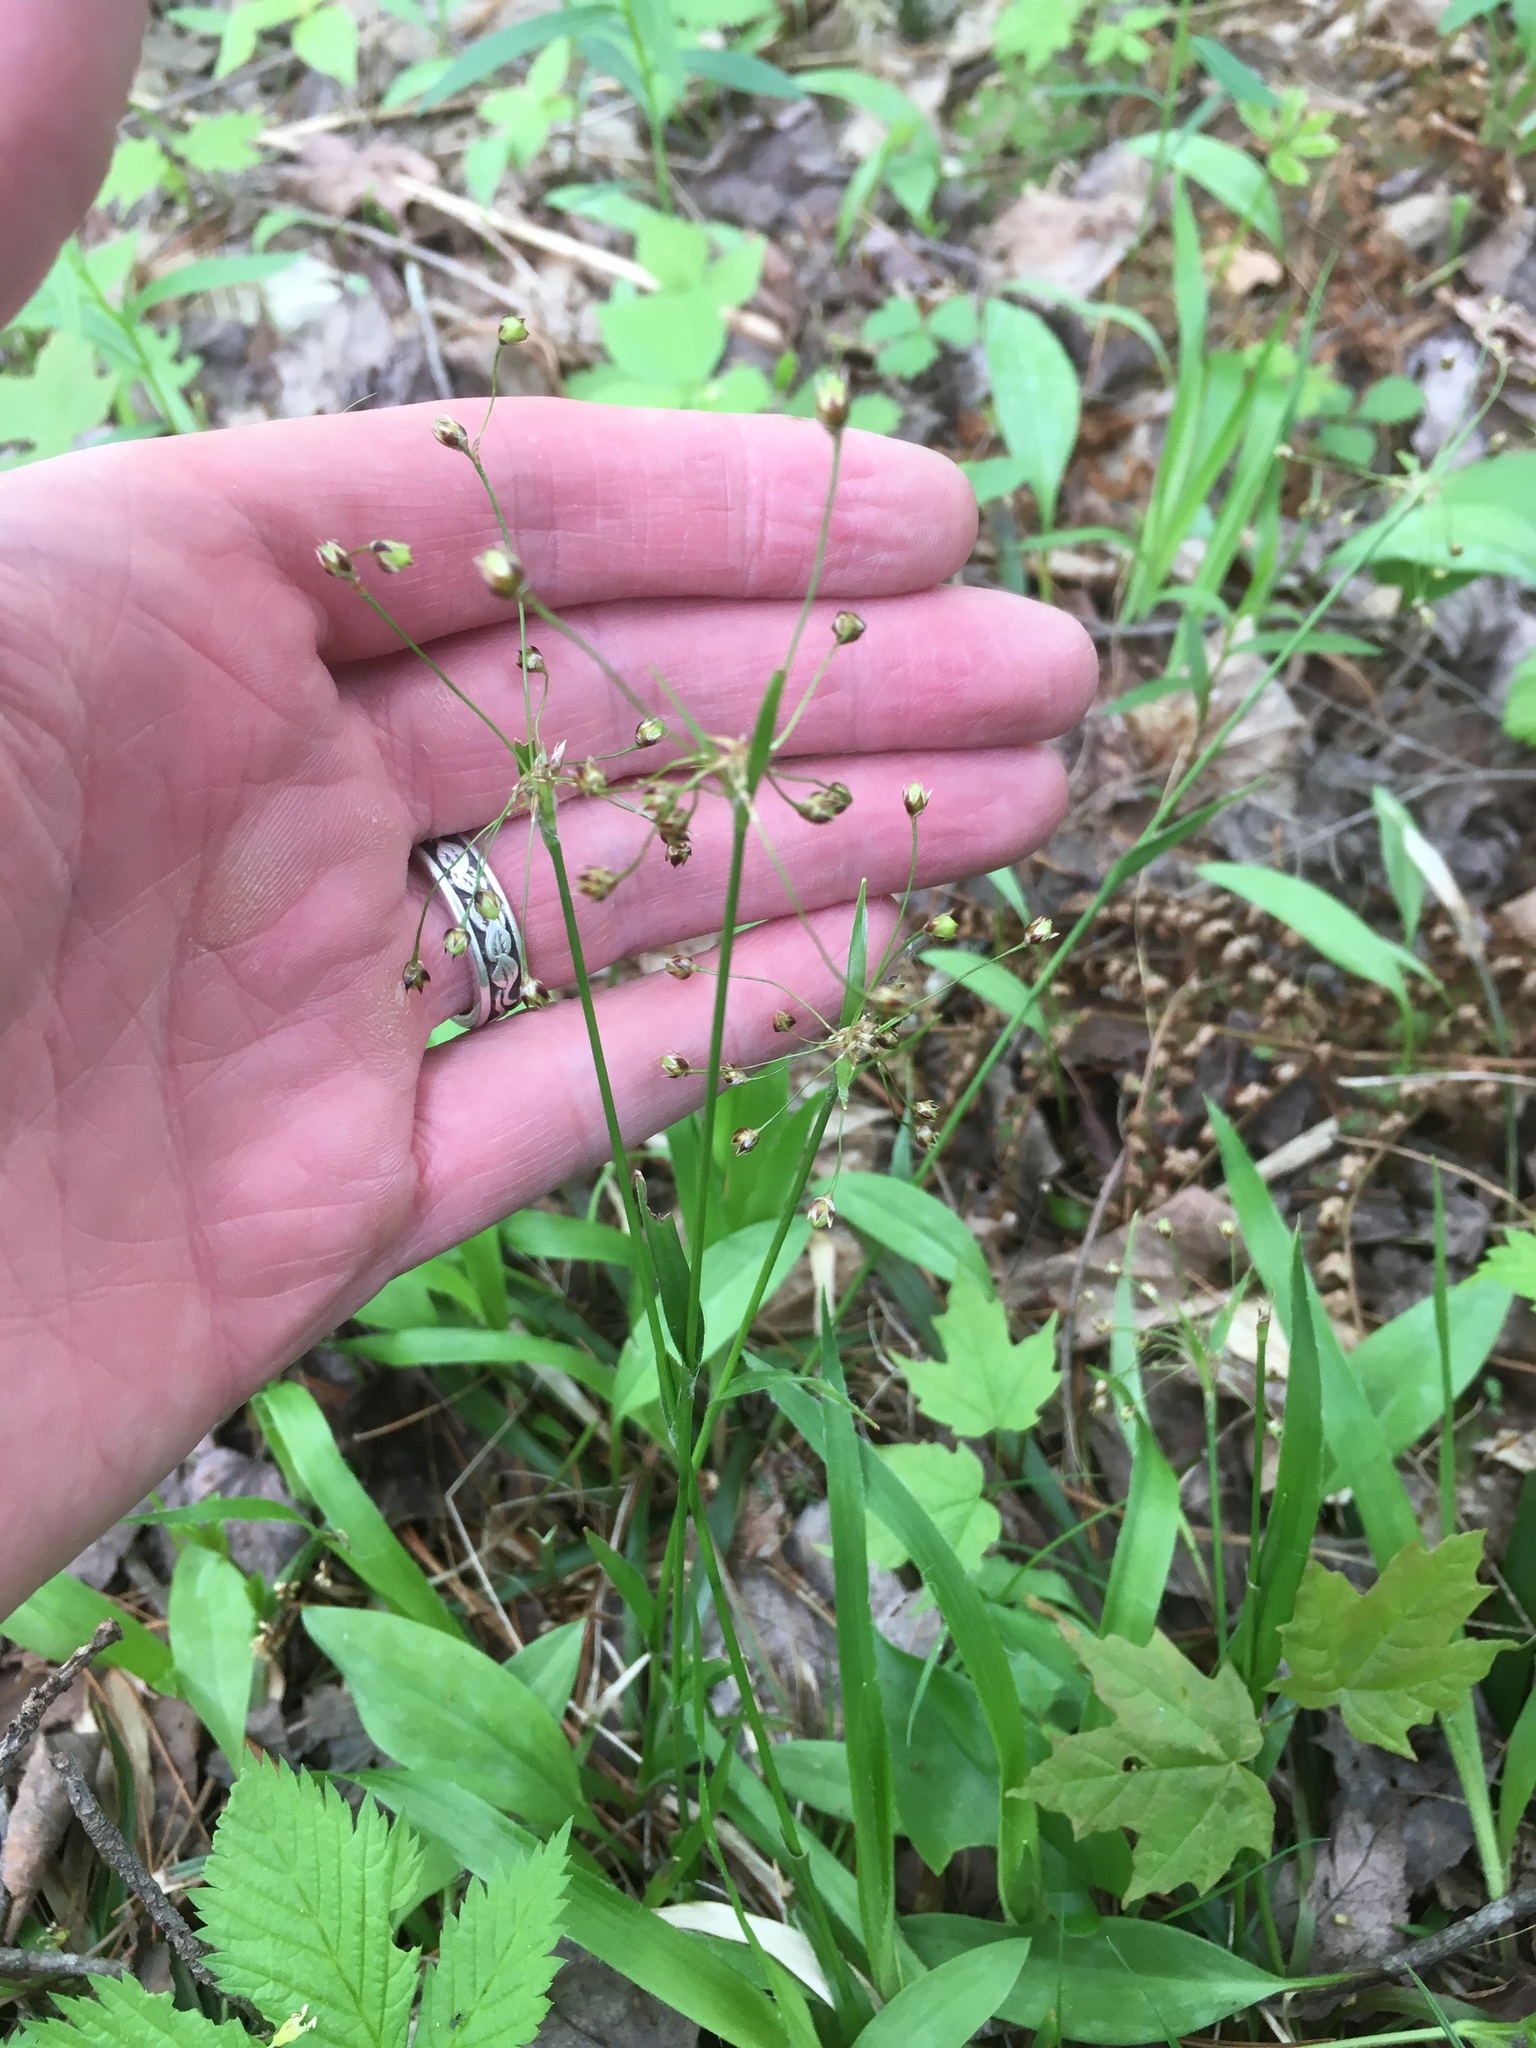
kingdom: Plantae
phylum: Tracheophyta
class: Liliopsida
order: Poales
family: Juncaceae
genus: Luzula
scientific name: Luzula acuminata
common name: Hairy woodrush
